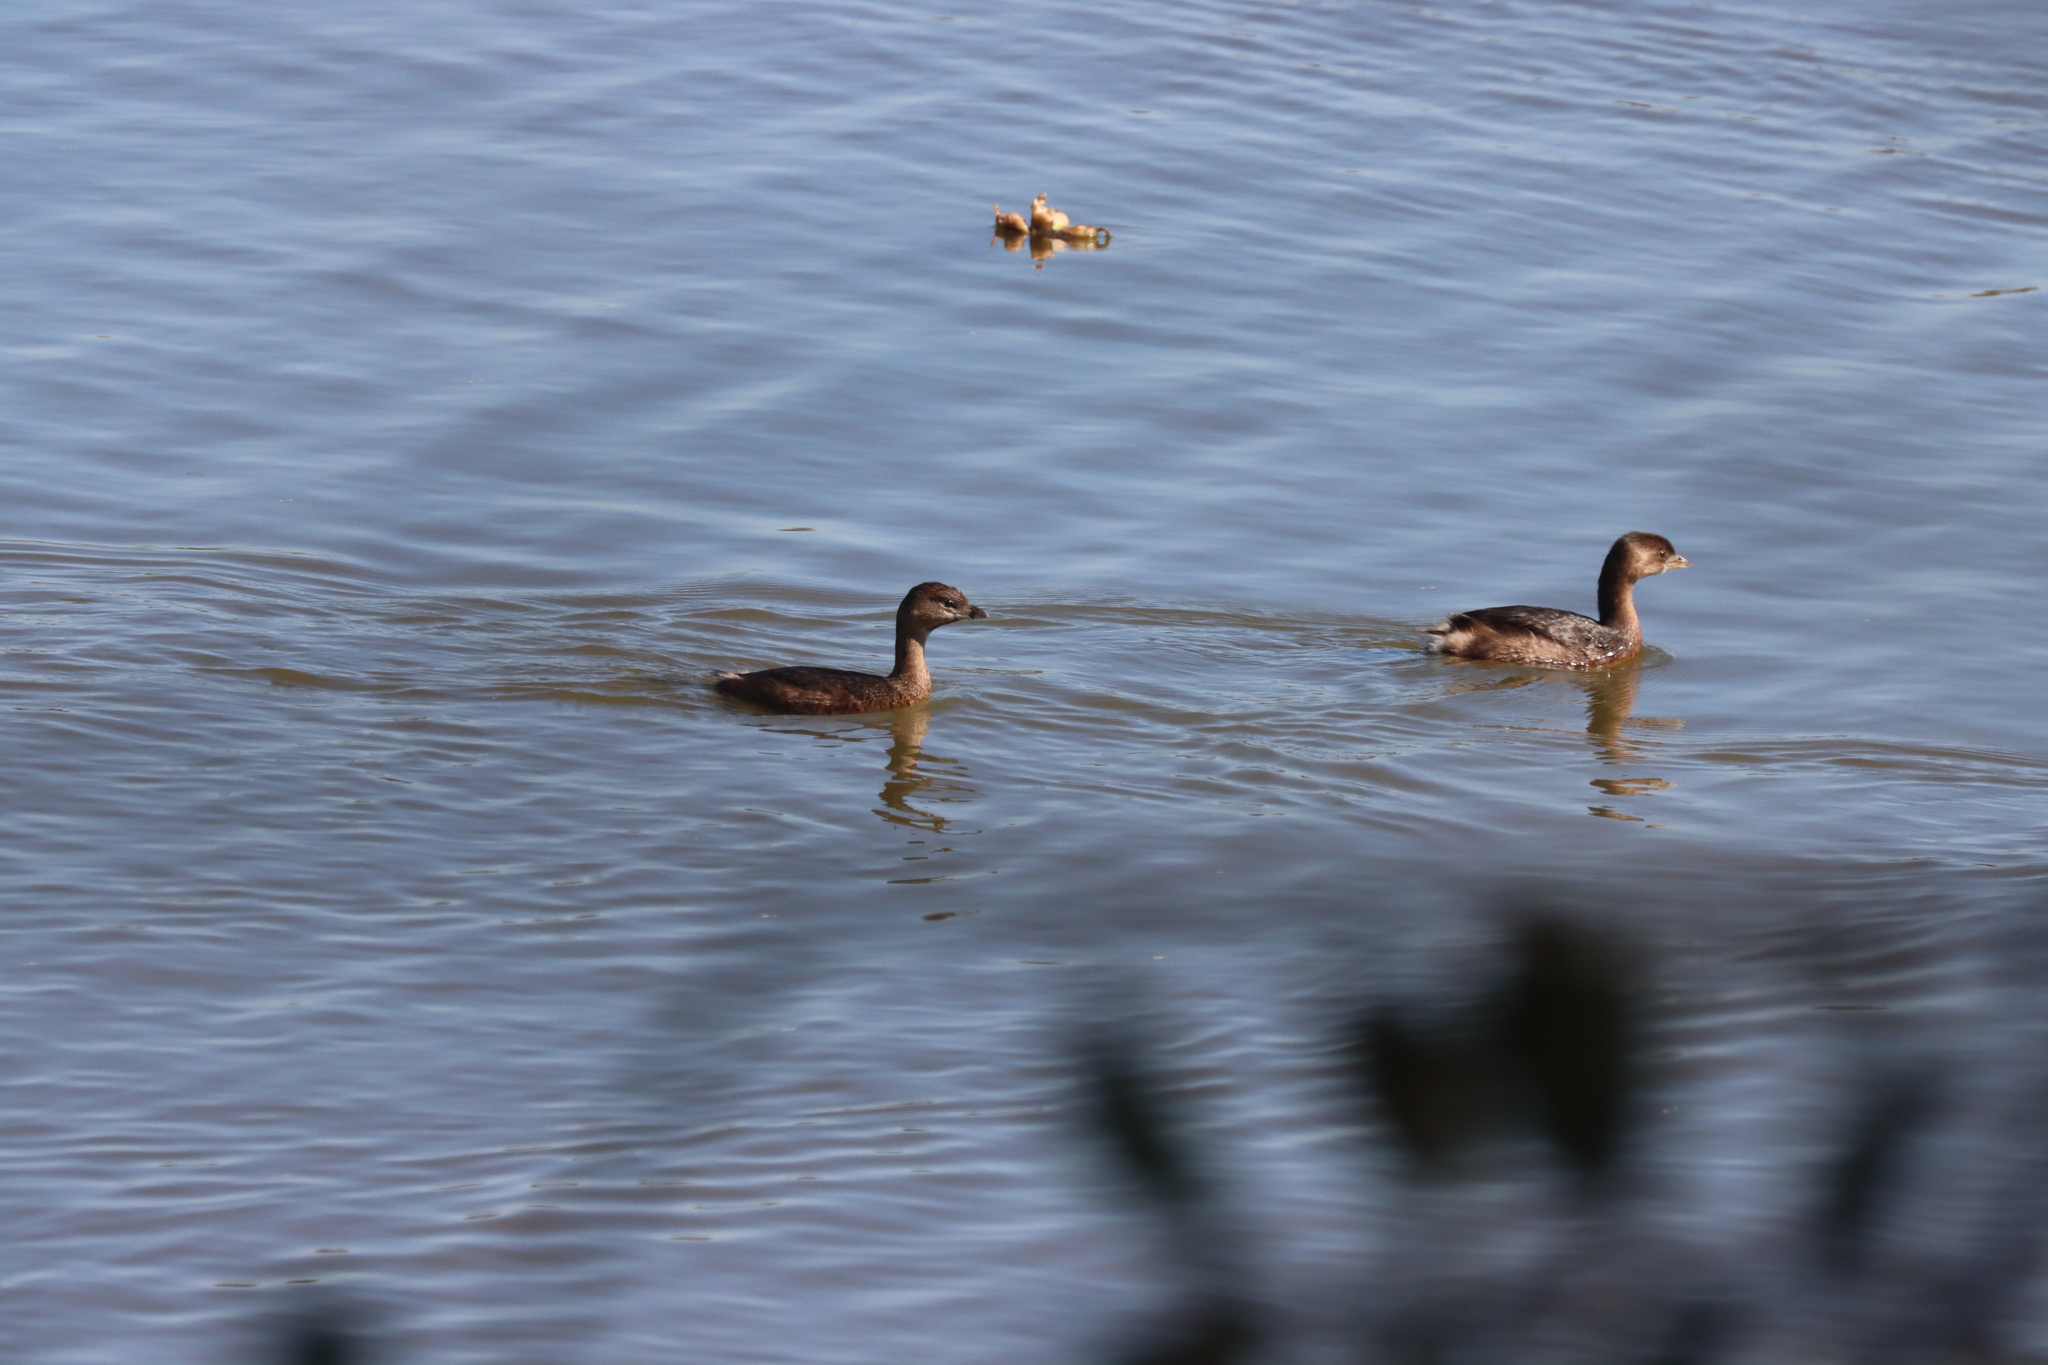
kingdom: Animalia
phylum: Chordata
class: Aves
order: Podicipediformes
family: Podicipedidae
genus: Podilymbus
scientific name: Podilymbus podiceps
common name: Pied-billed grebe
